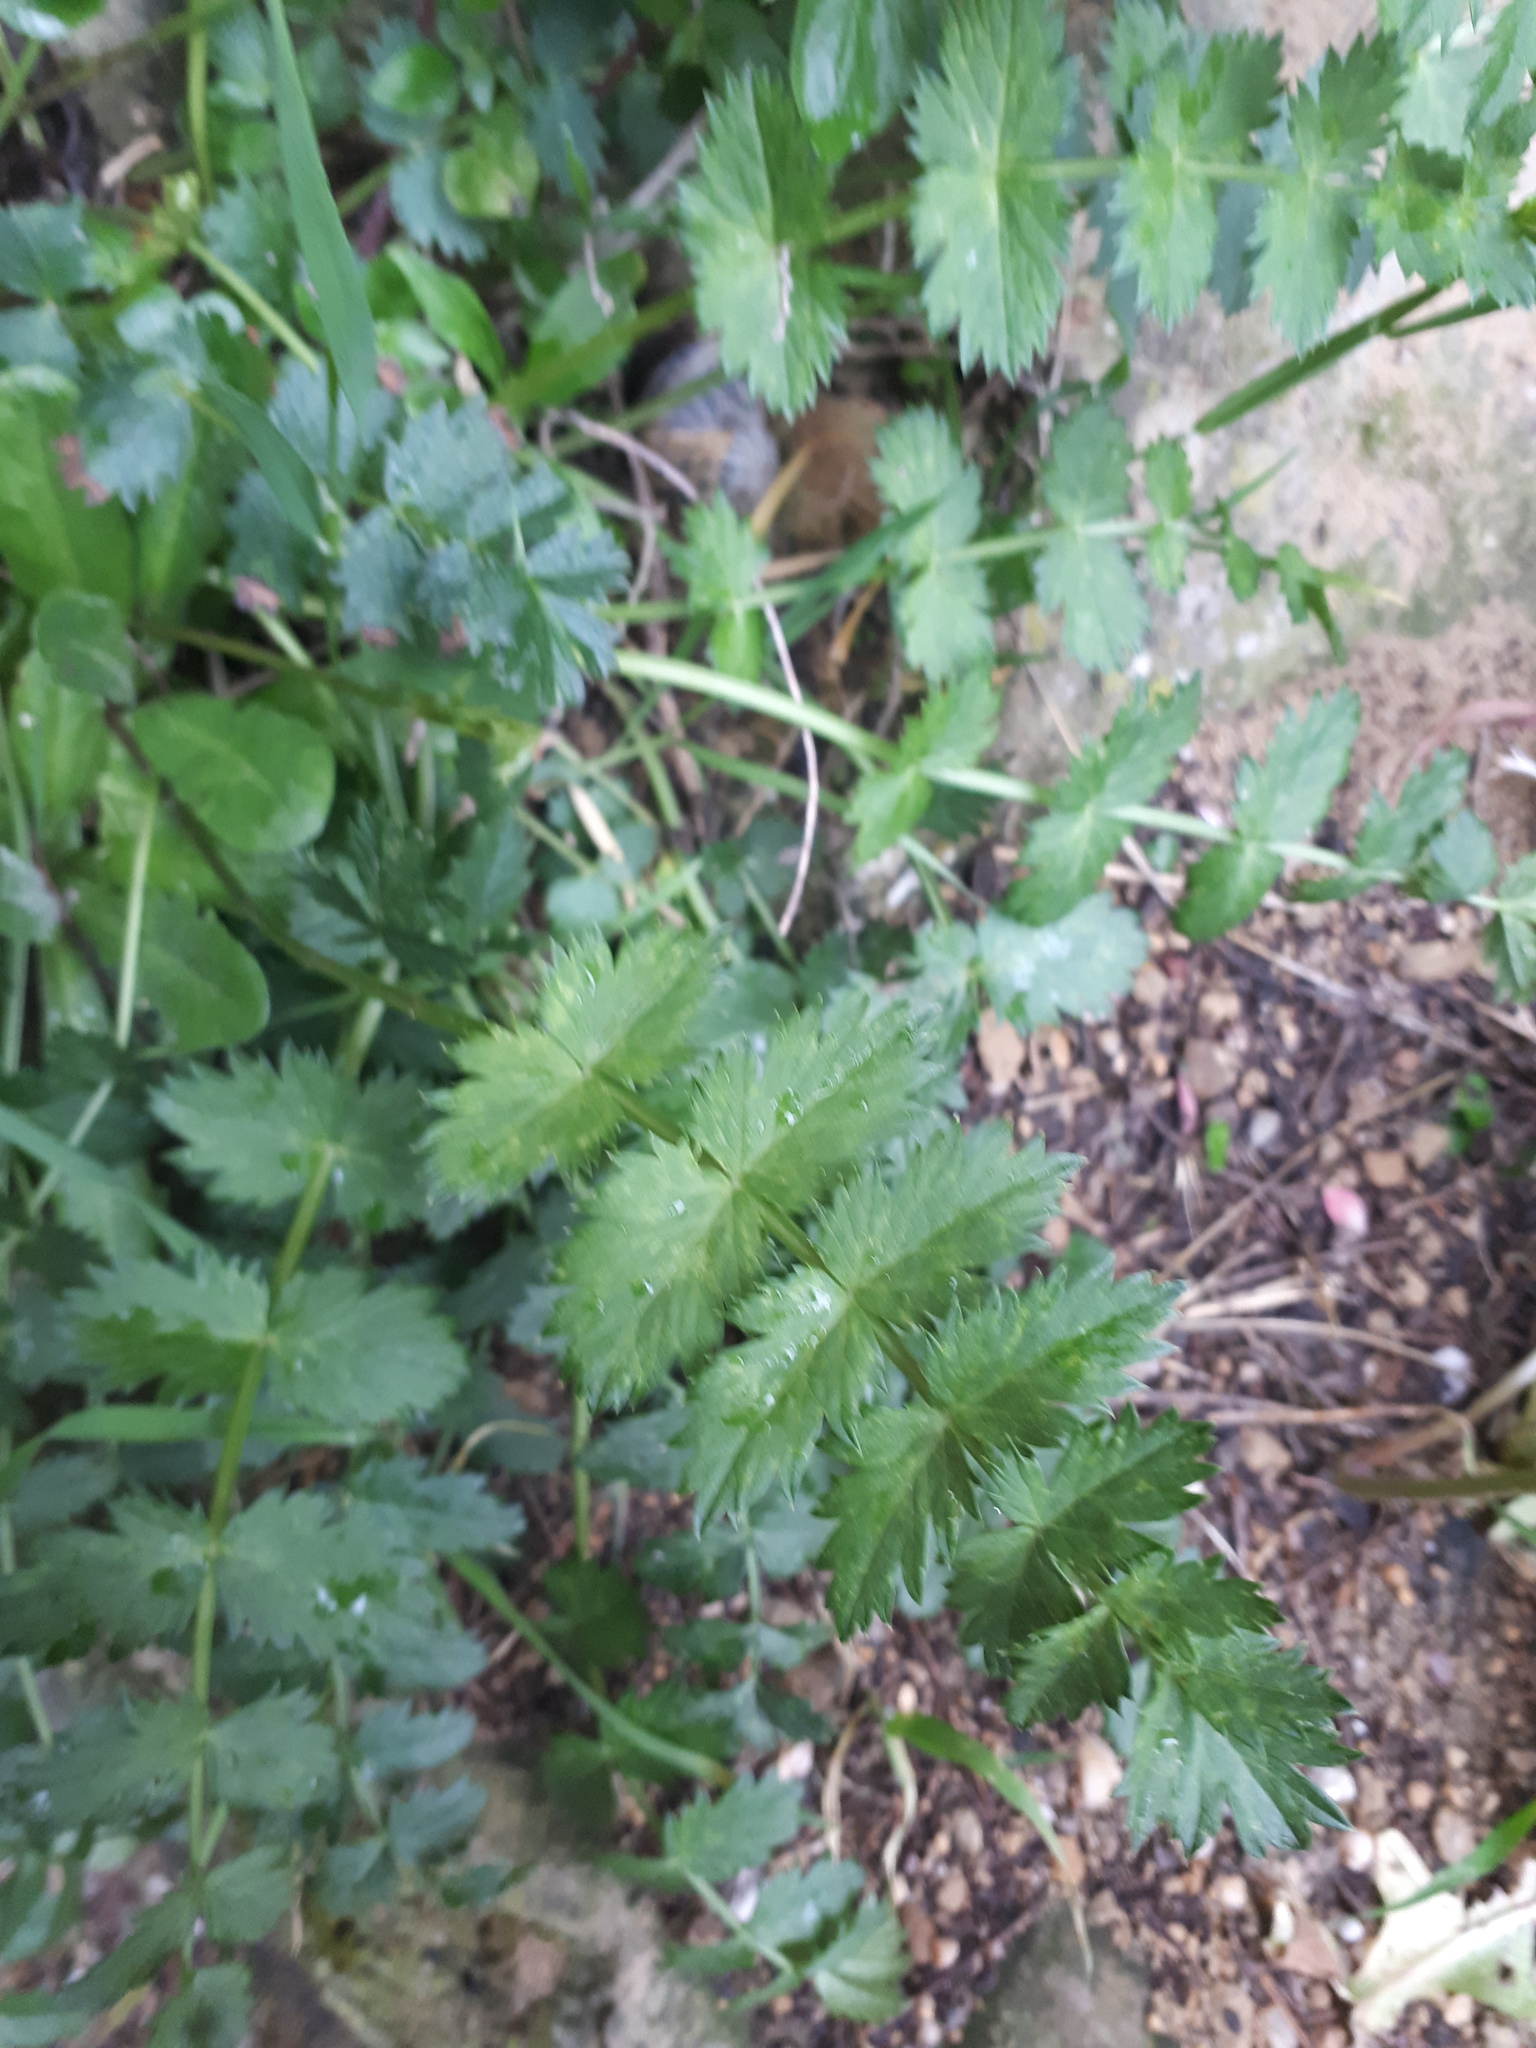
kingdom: Plantae
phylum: Tracheophyta
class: Magnoliopsida
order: Rosales
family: Rosaceae
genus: Argentina
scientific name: Argentina anserina
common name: Common silverweed
